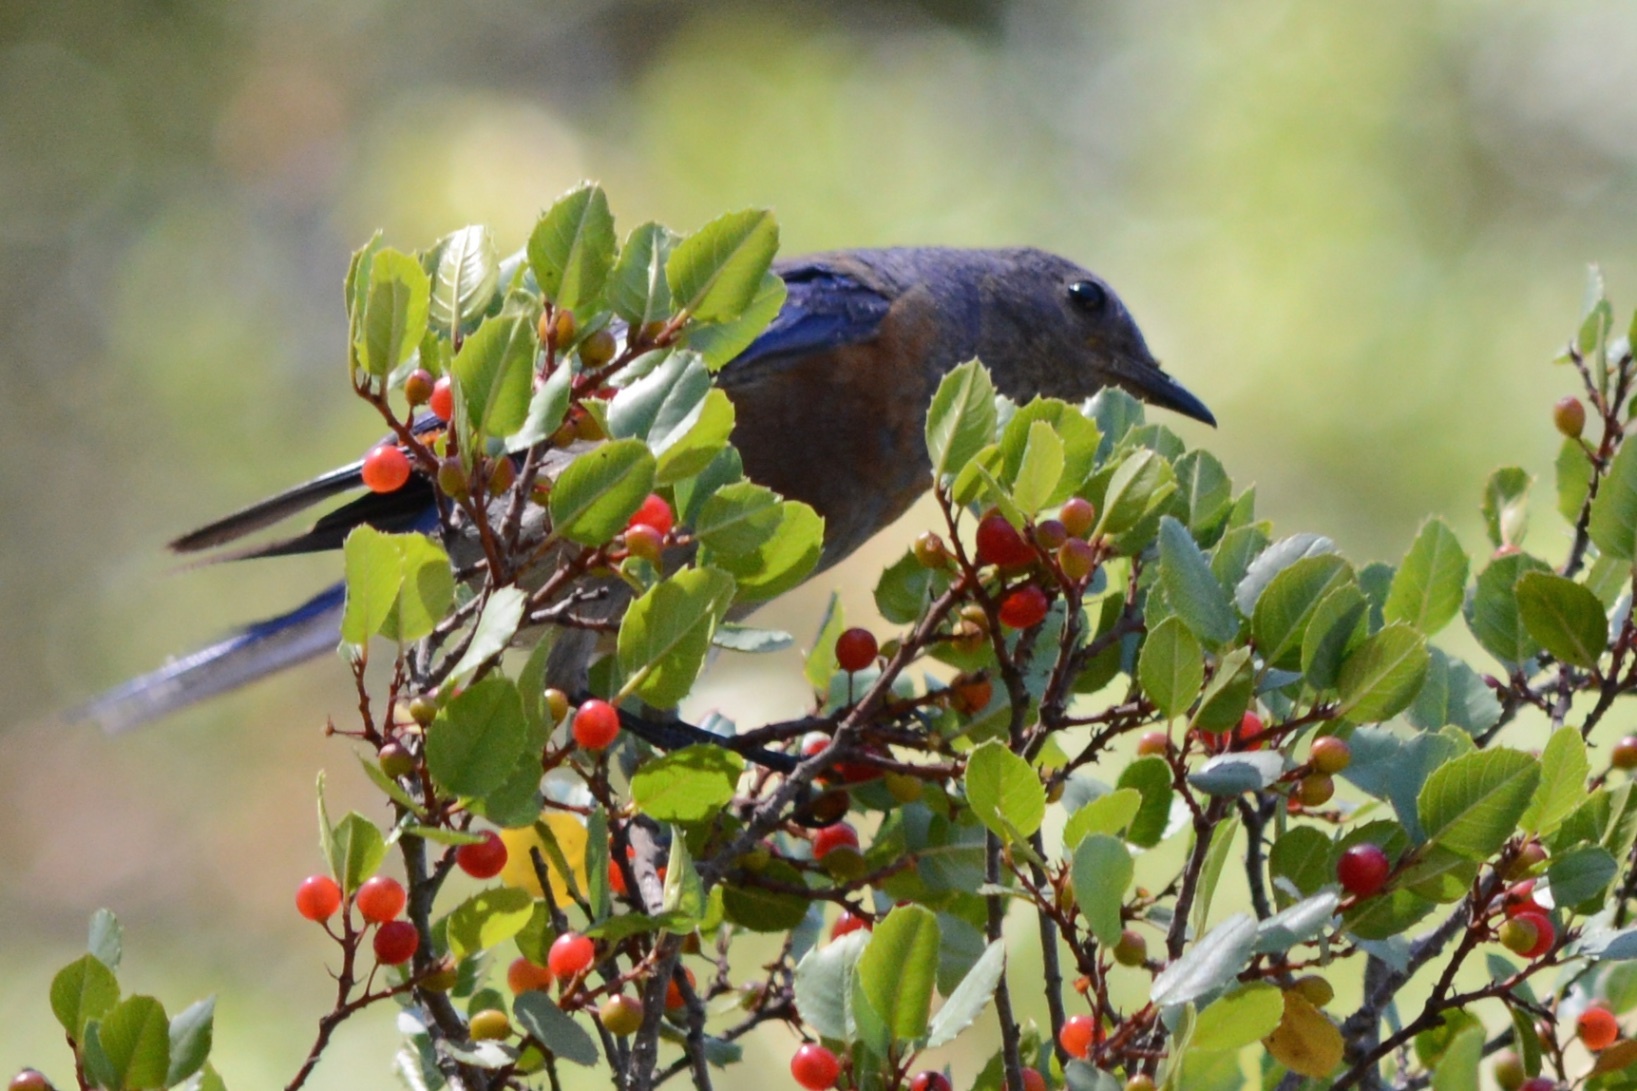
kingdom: Animalia
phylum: Chordata
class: Aves
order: Passeriformes
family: Turdidae
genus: Sialia
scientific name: Sialia mexicana
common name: Western bluebird
